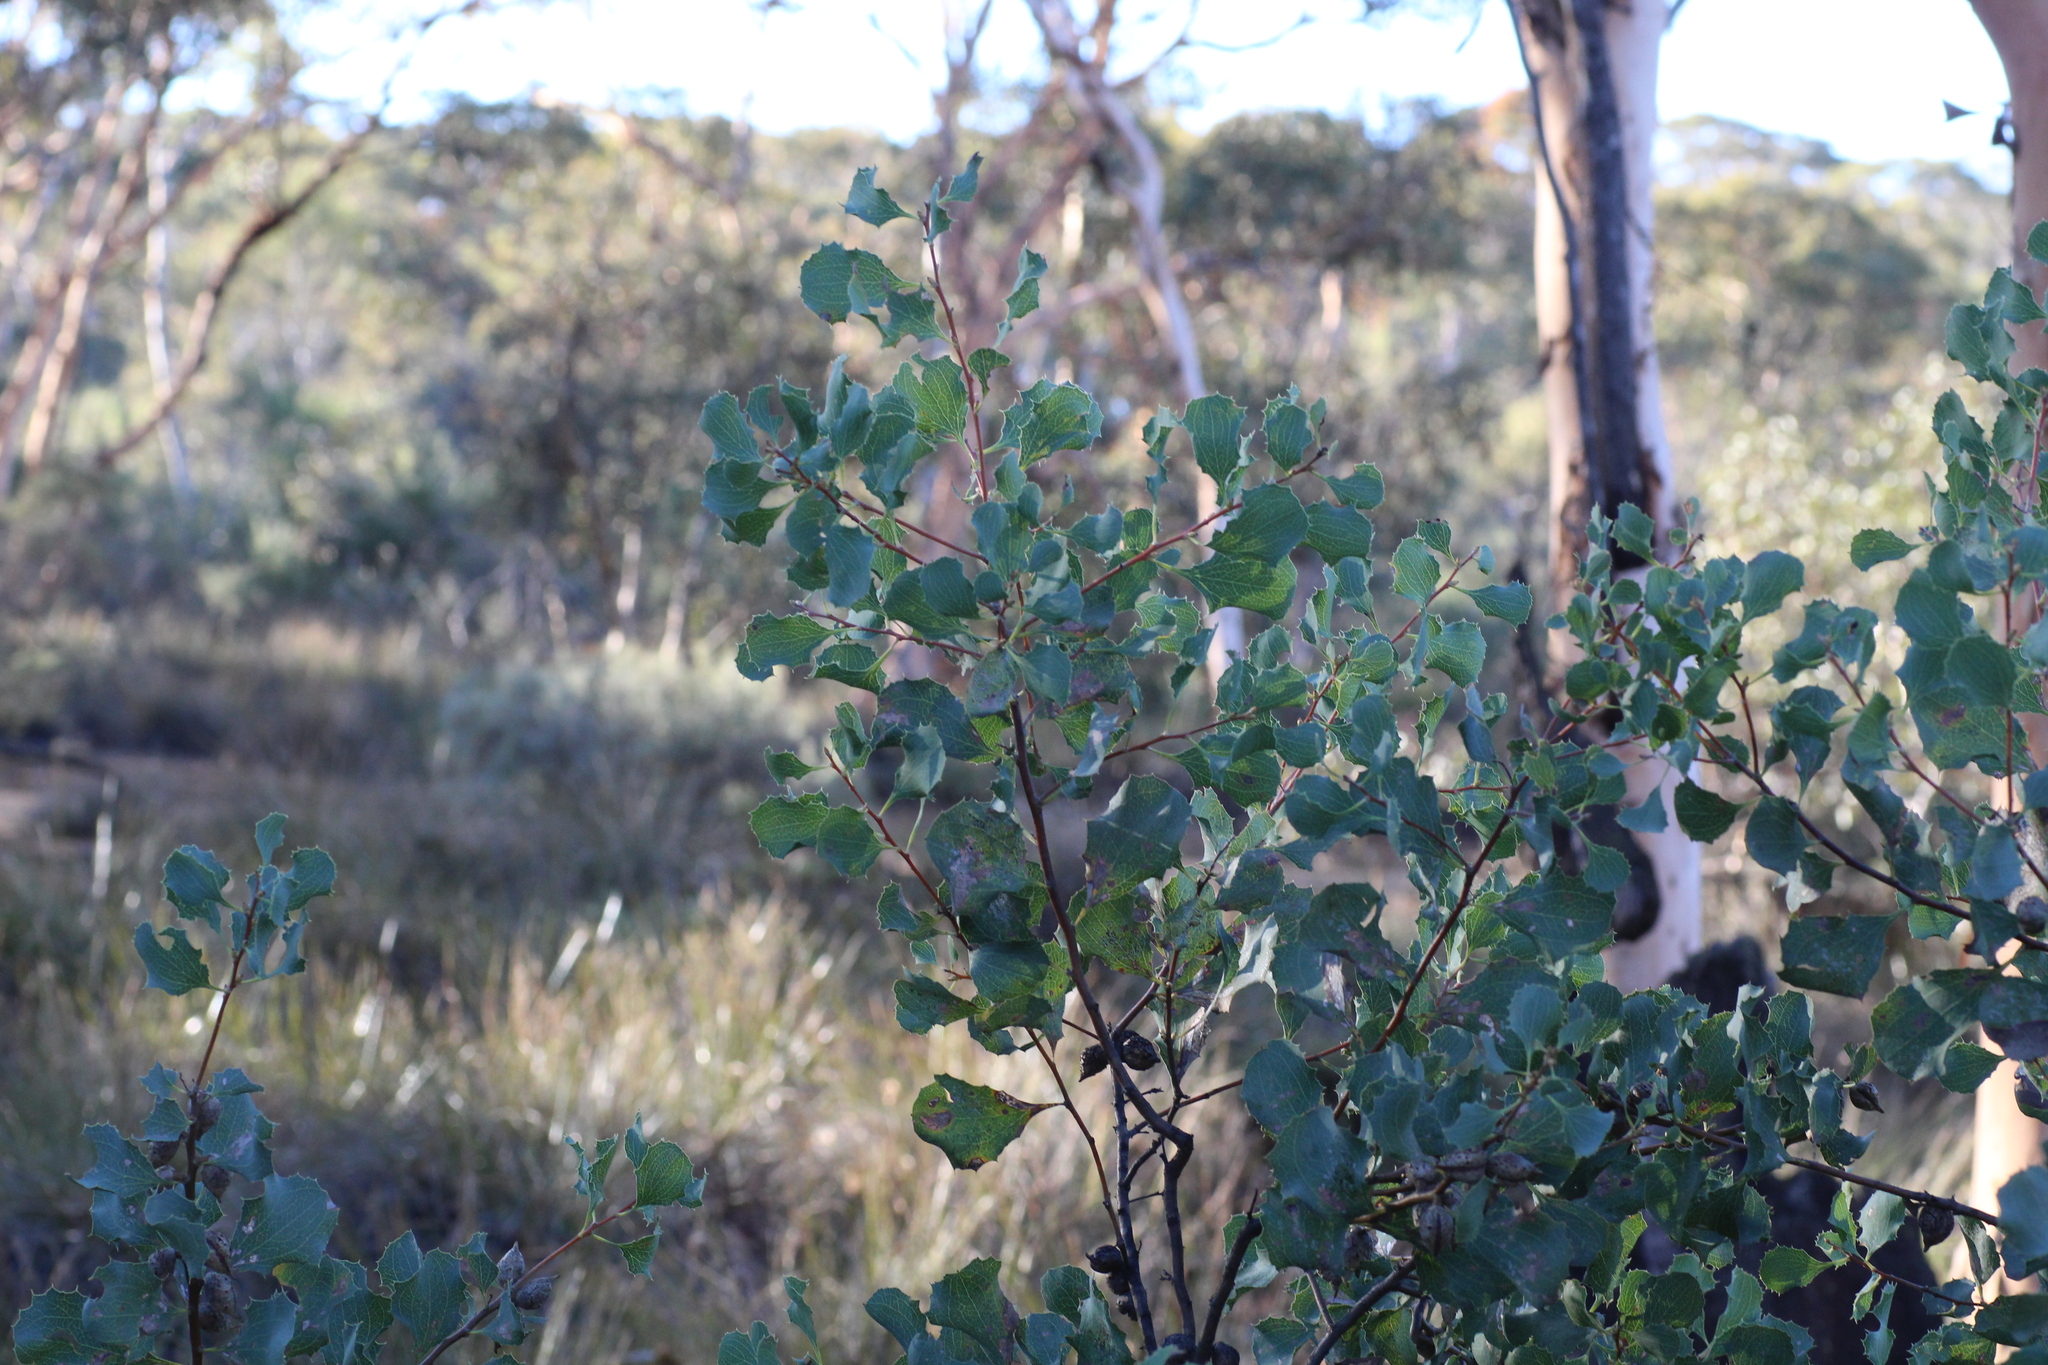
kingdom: Plantae
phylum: Tracheophyta
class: Magnoliopsida
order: Proteales
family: Proteaceae
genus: Hakea
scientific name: Hakea undulata
